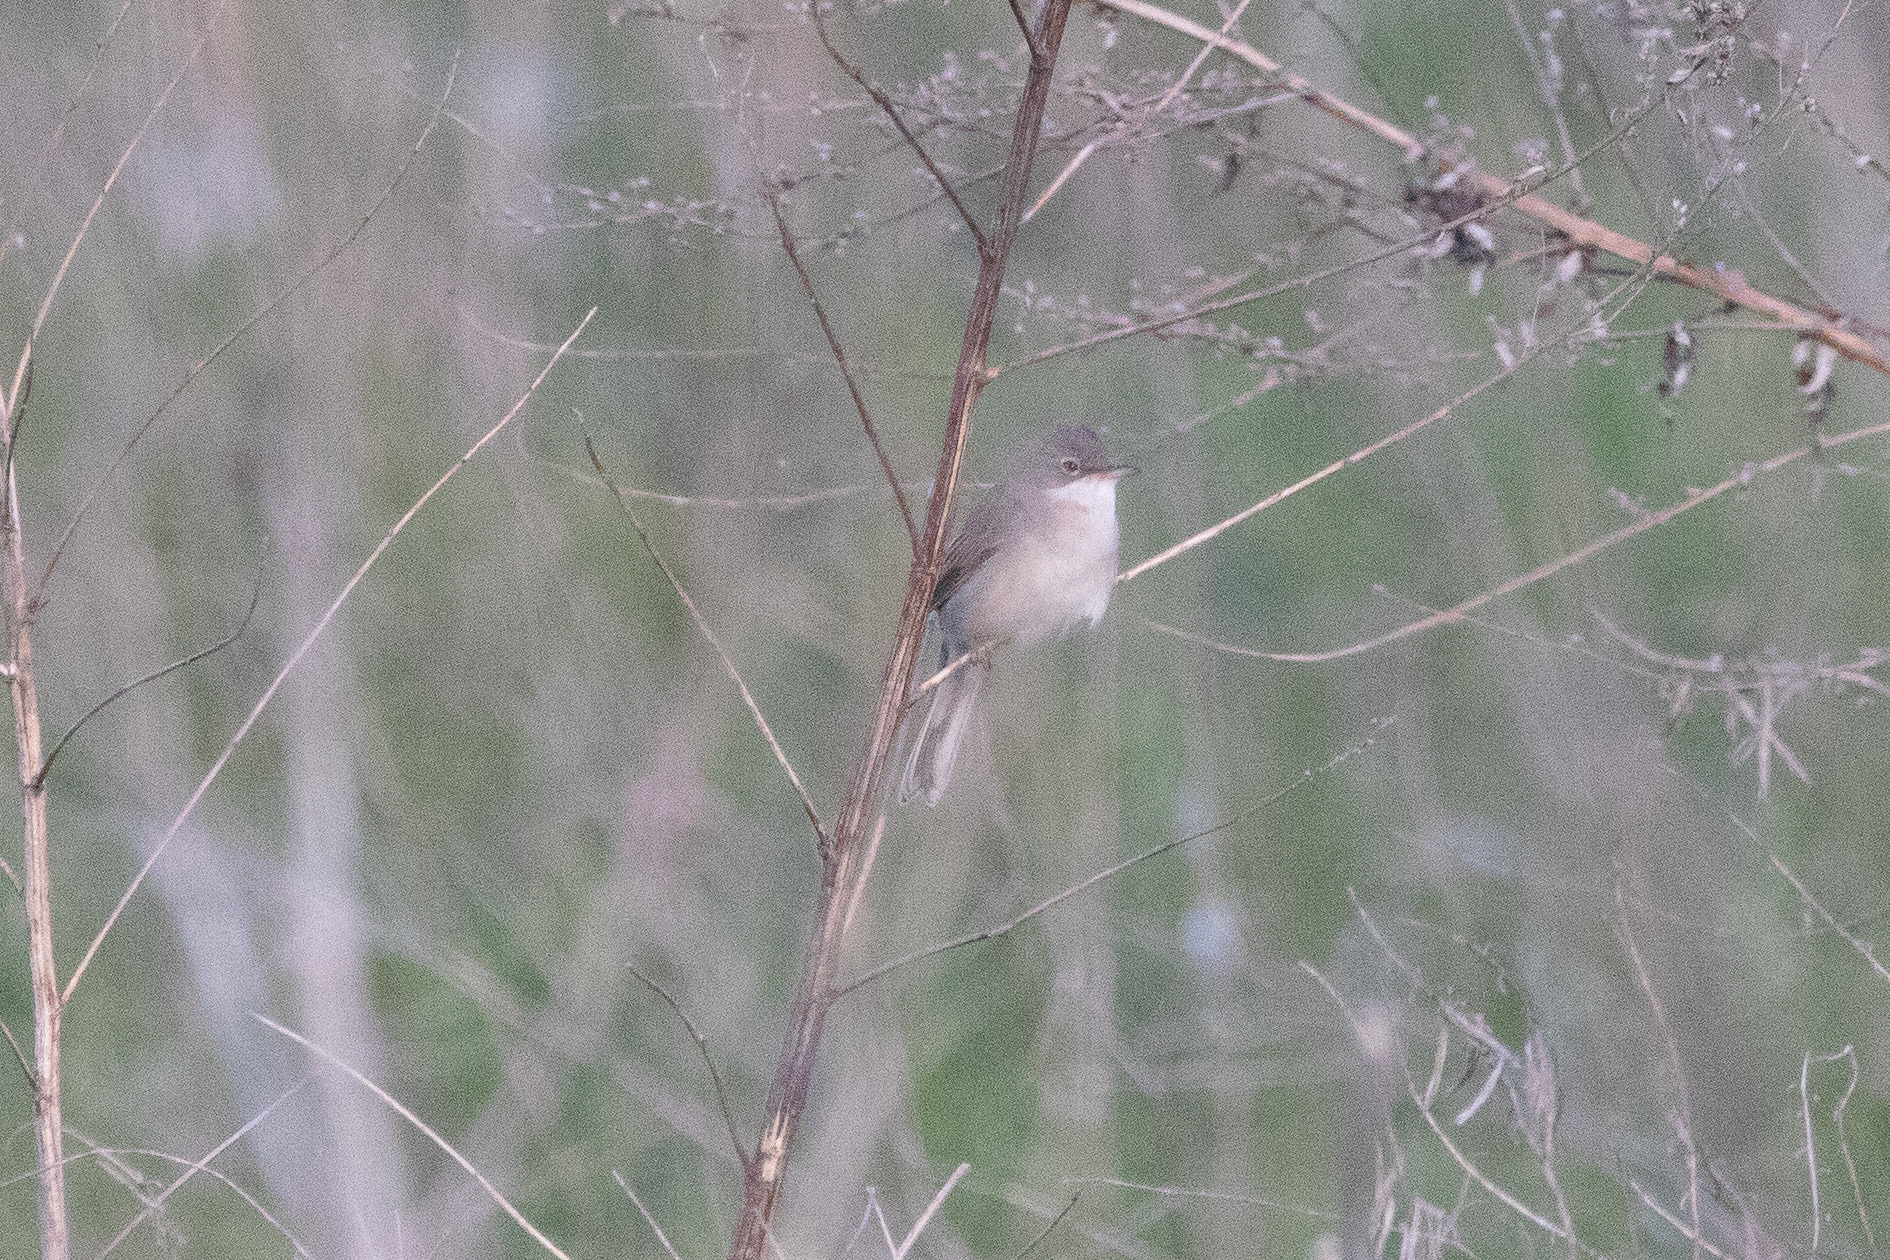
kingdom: Animalia
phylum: Chordata
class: Aves
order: Passeriformes
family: Sylviidae
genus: Sylvia
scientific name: Sylvia communis
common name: Common whitethroat
